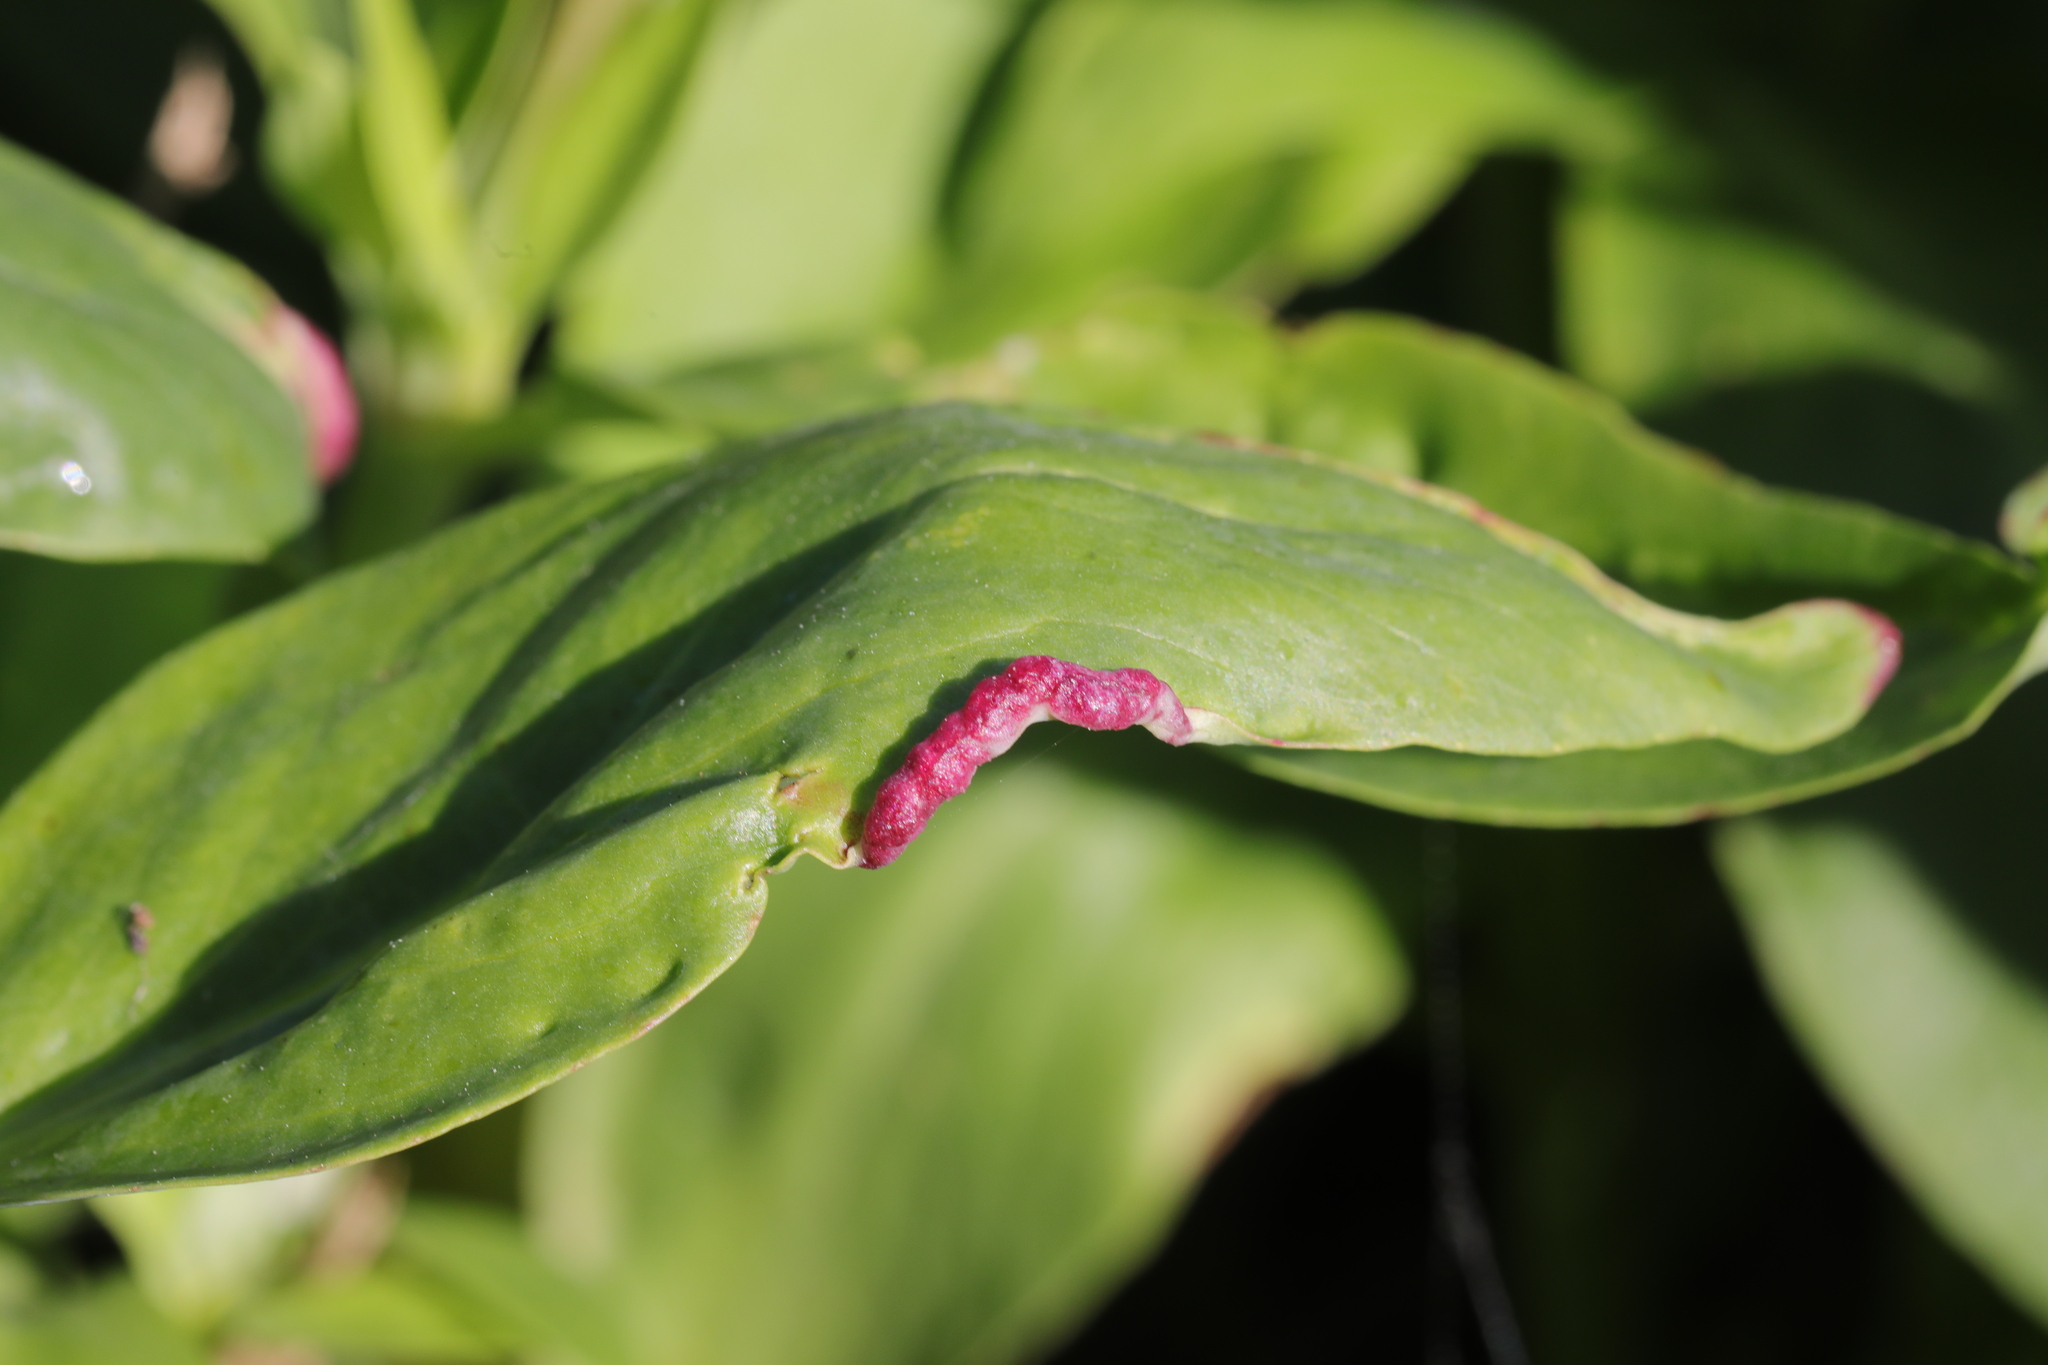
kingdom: Animalia
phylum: Arthropoda
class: Insecta
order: Hemiptera
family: Triozidae
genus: Trioza
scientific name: Trioza centranthi
